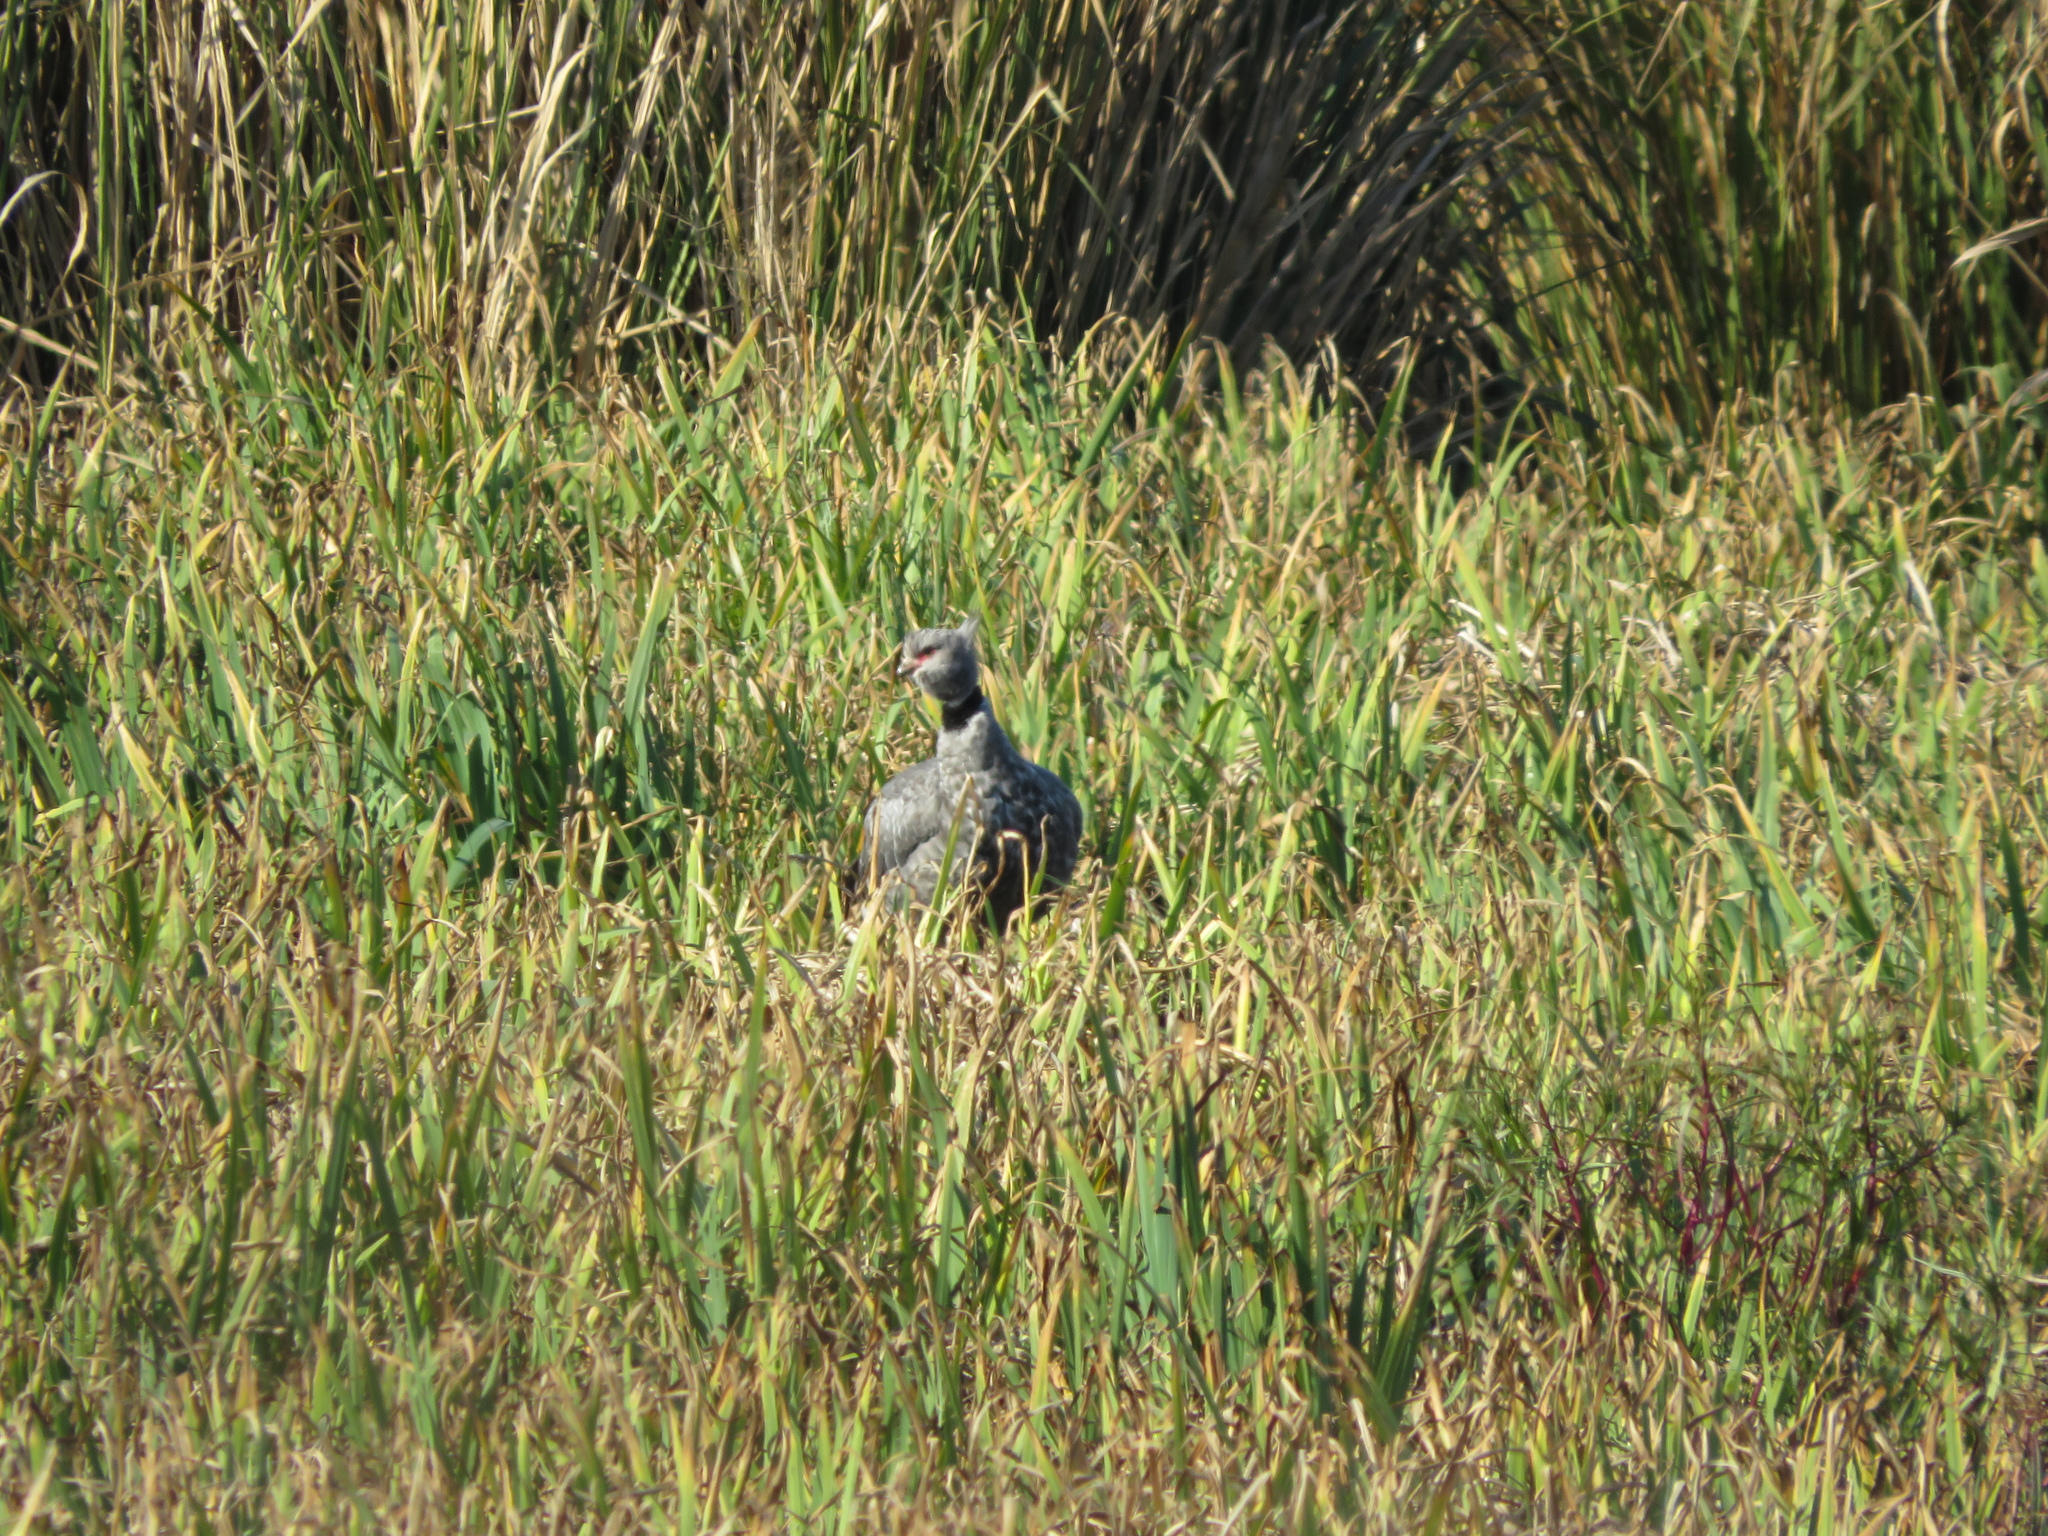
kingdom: Animalia
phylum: Chordata
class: Aves
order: Anseriformes
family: Anhimidae
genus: Chauna
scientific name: Chauna torquata
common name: Southern screamer
